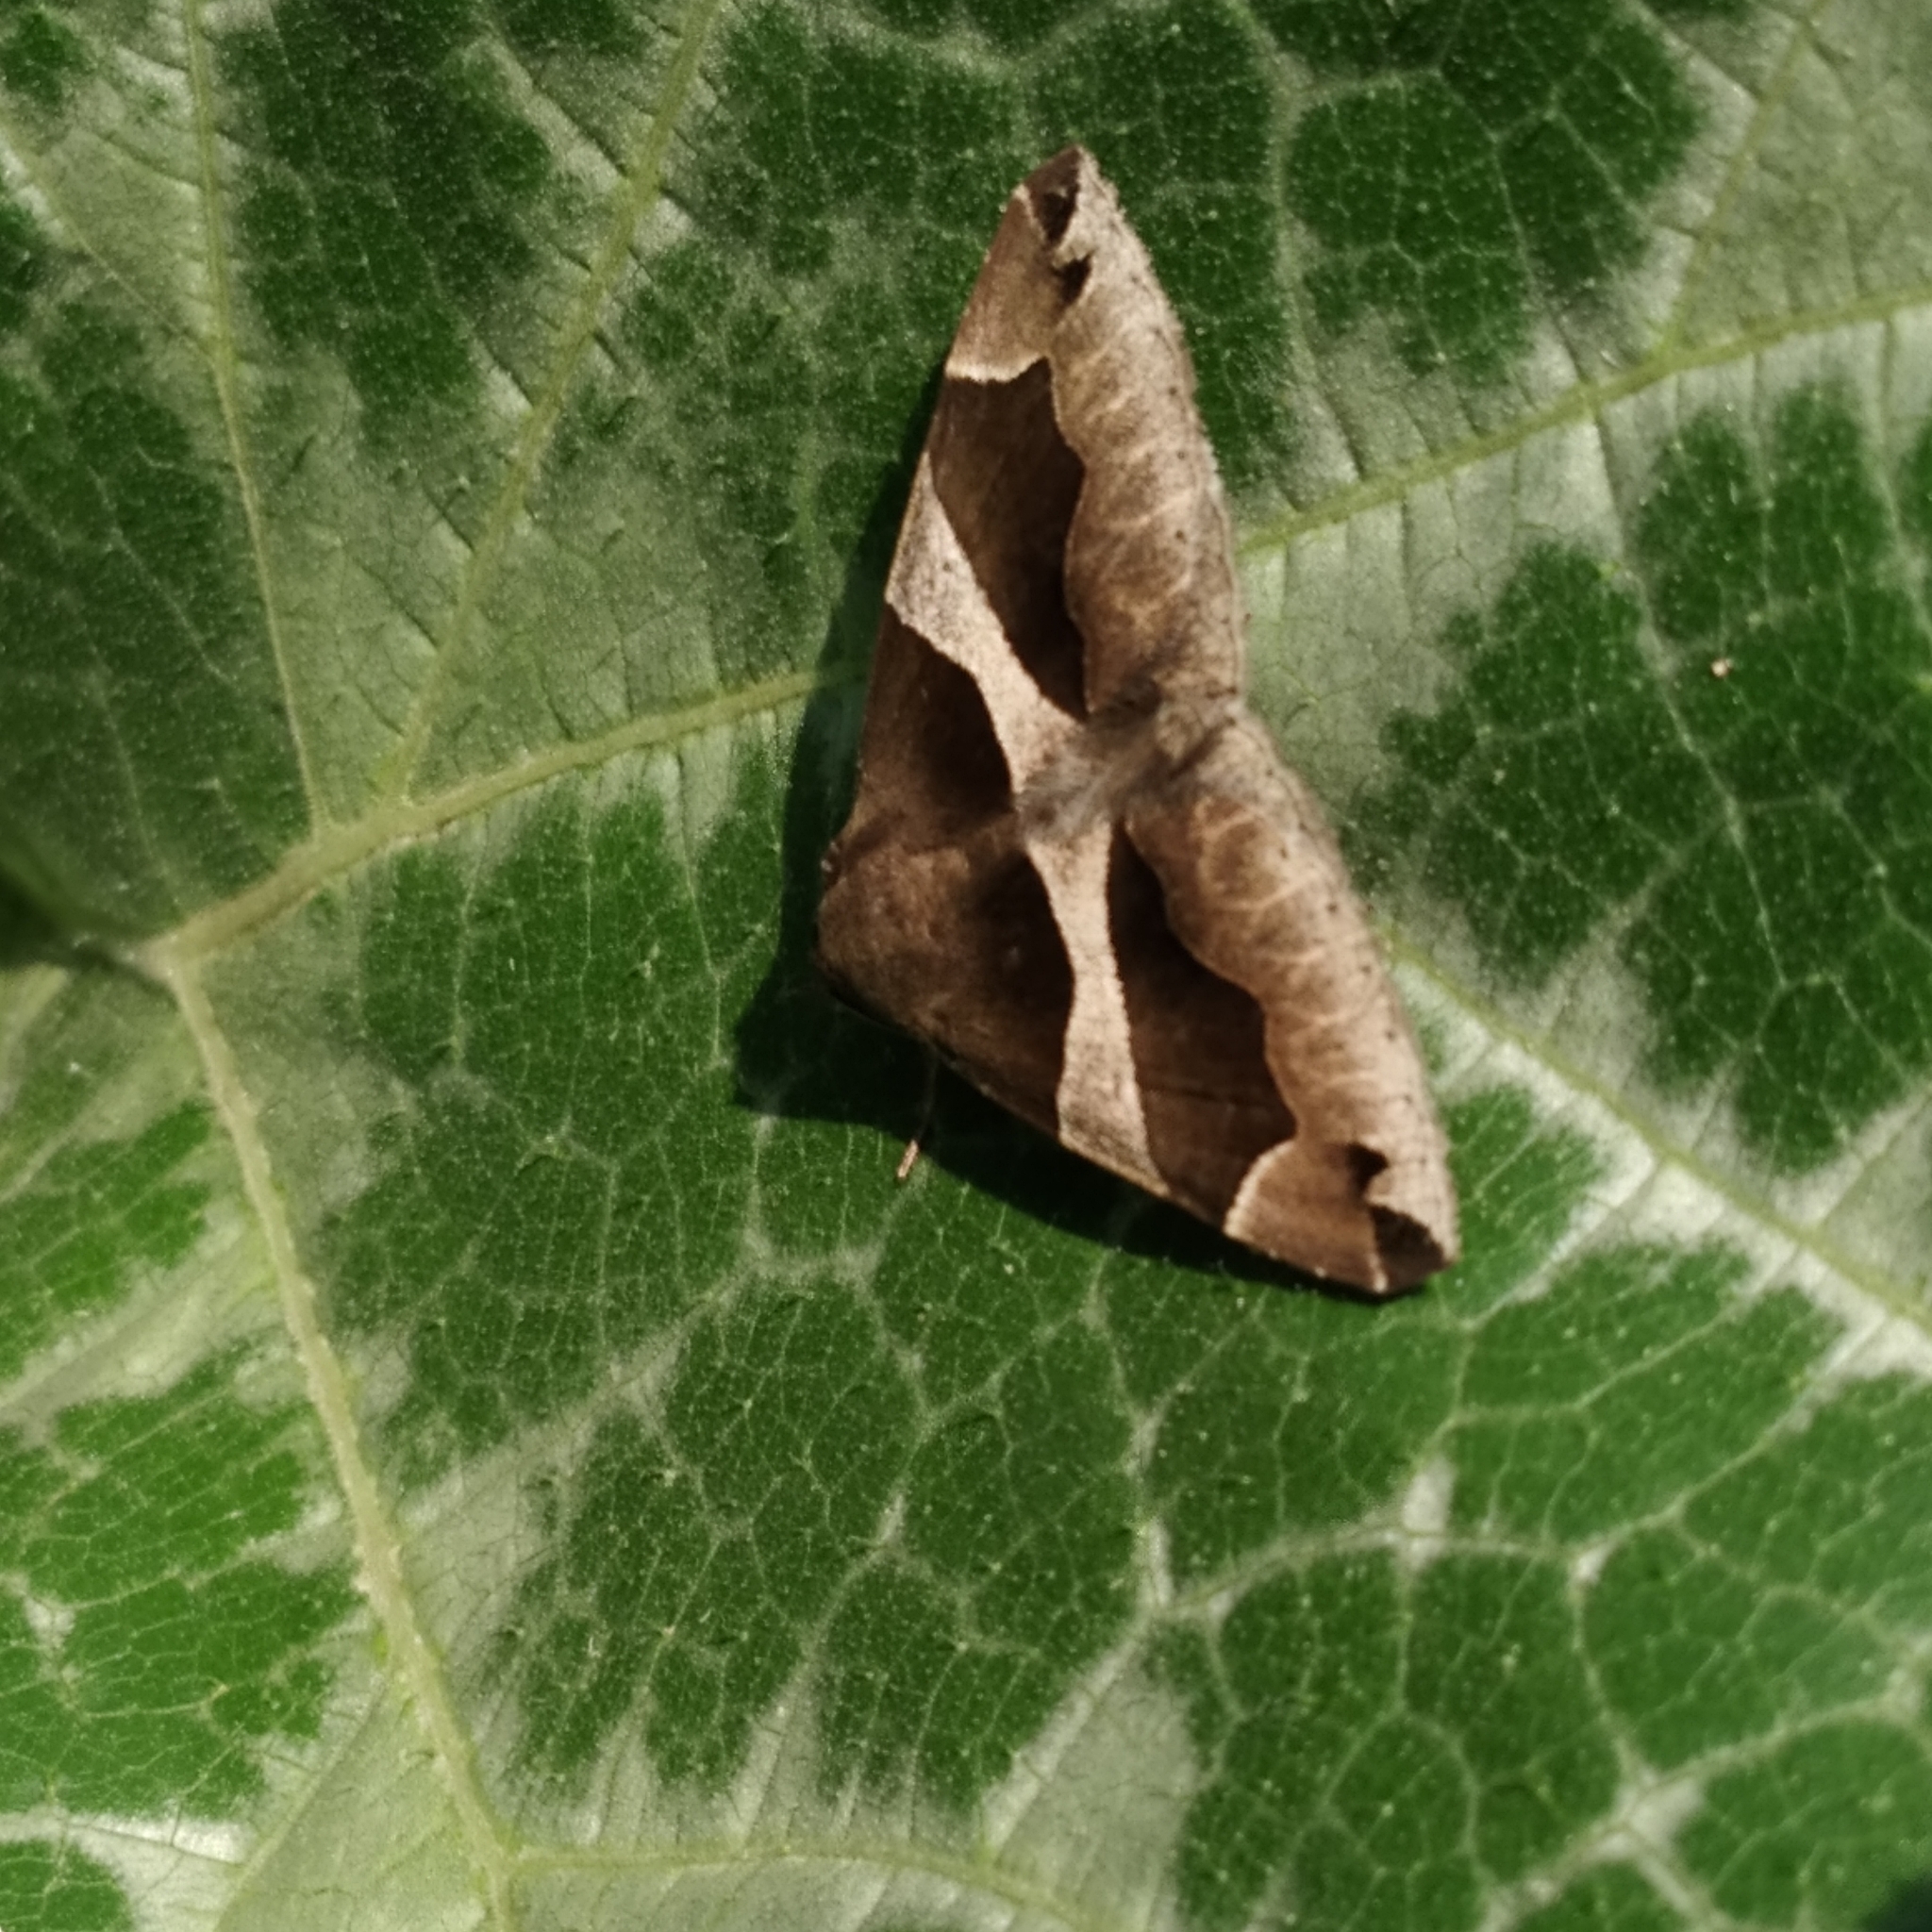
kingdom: Animalia
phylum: Arthropoda
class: Insecta
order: Lepidoptera
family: Erebidae
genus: Dysgonia
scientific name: Dysgonia algira
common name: Passenger
